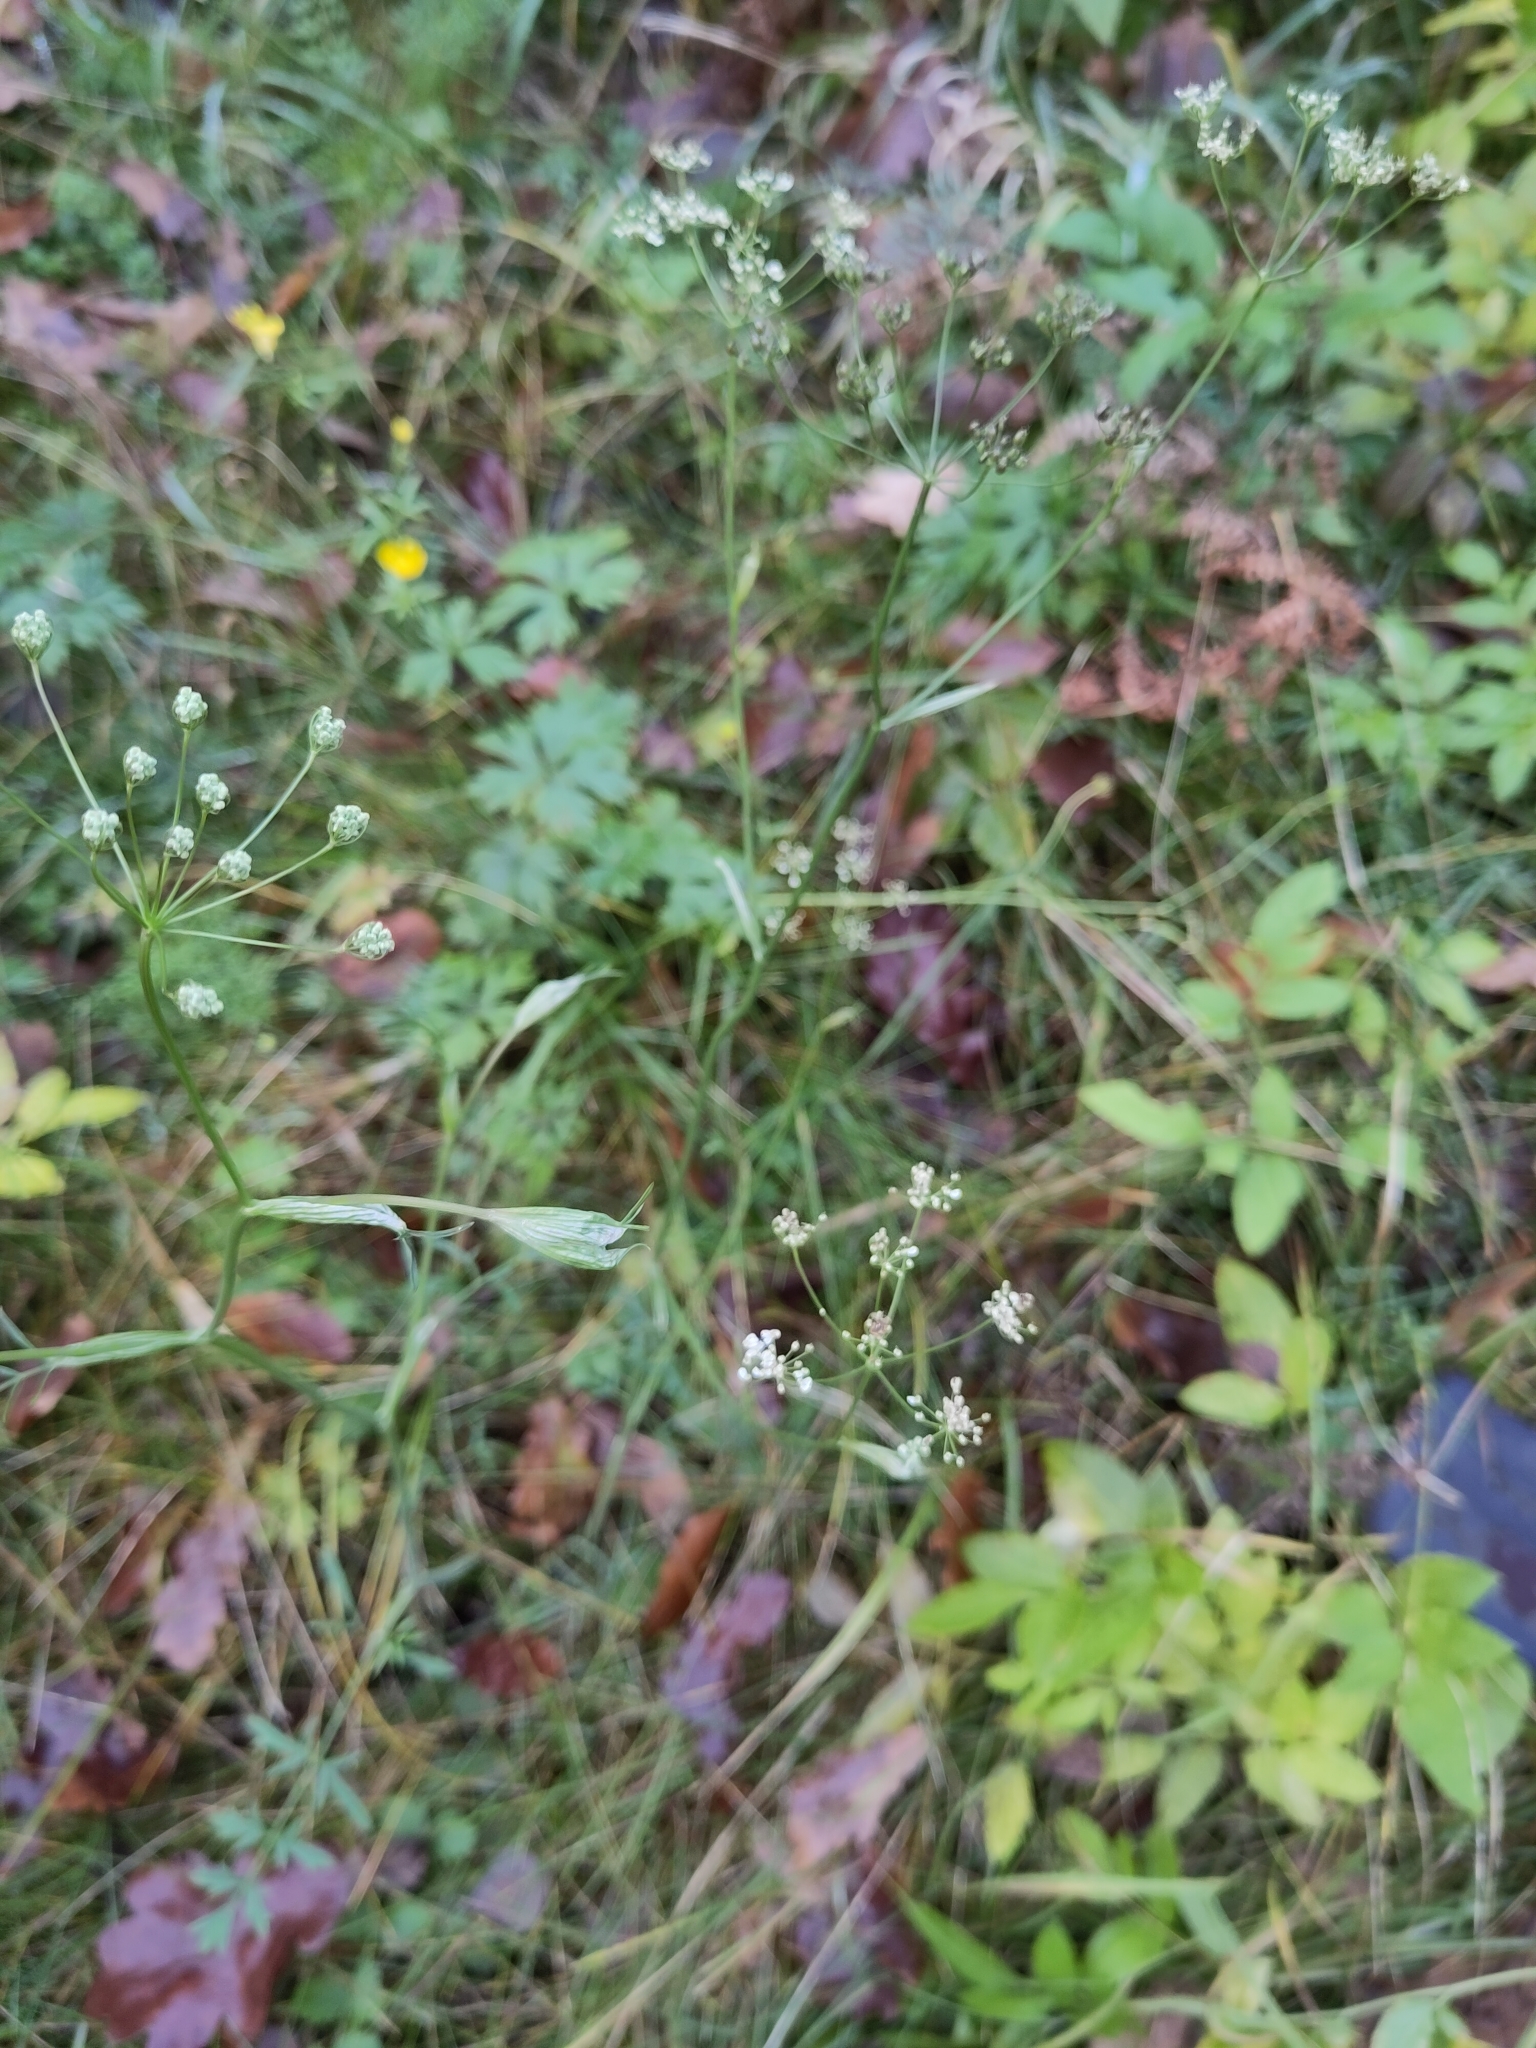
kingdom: Plantae
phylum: Tracheophyta
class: Magnoliopsida
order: Apiales
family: Apiaceae
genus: Pimpinella
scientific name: Pimpinella saxifraga
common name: Burnet-saxifrage
